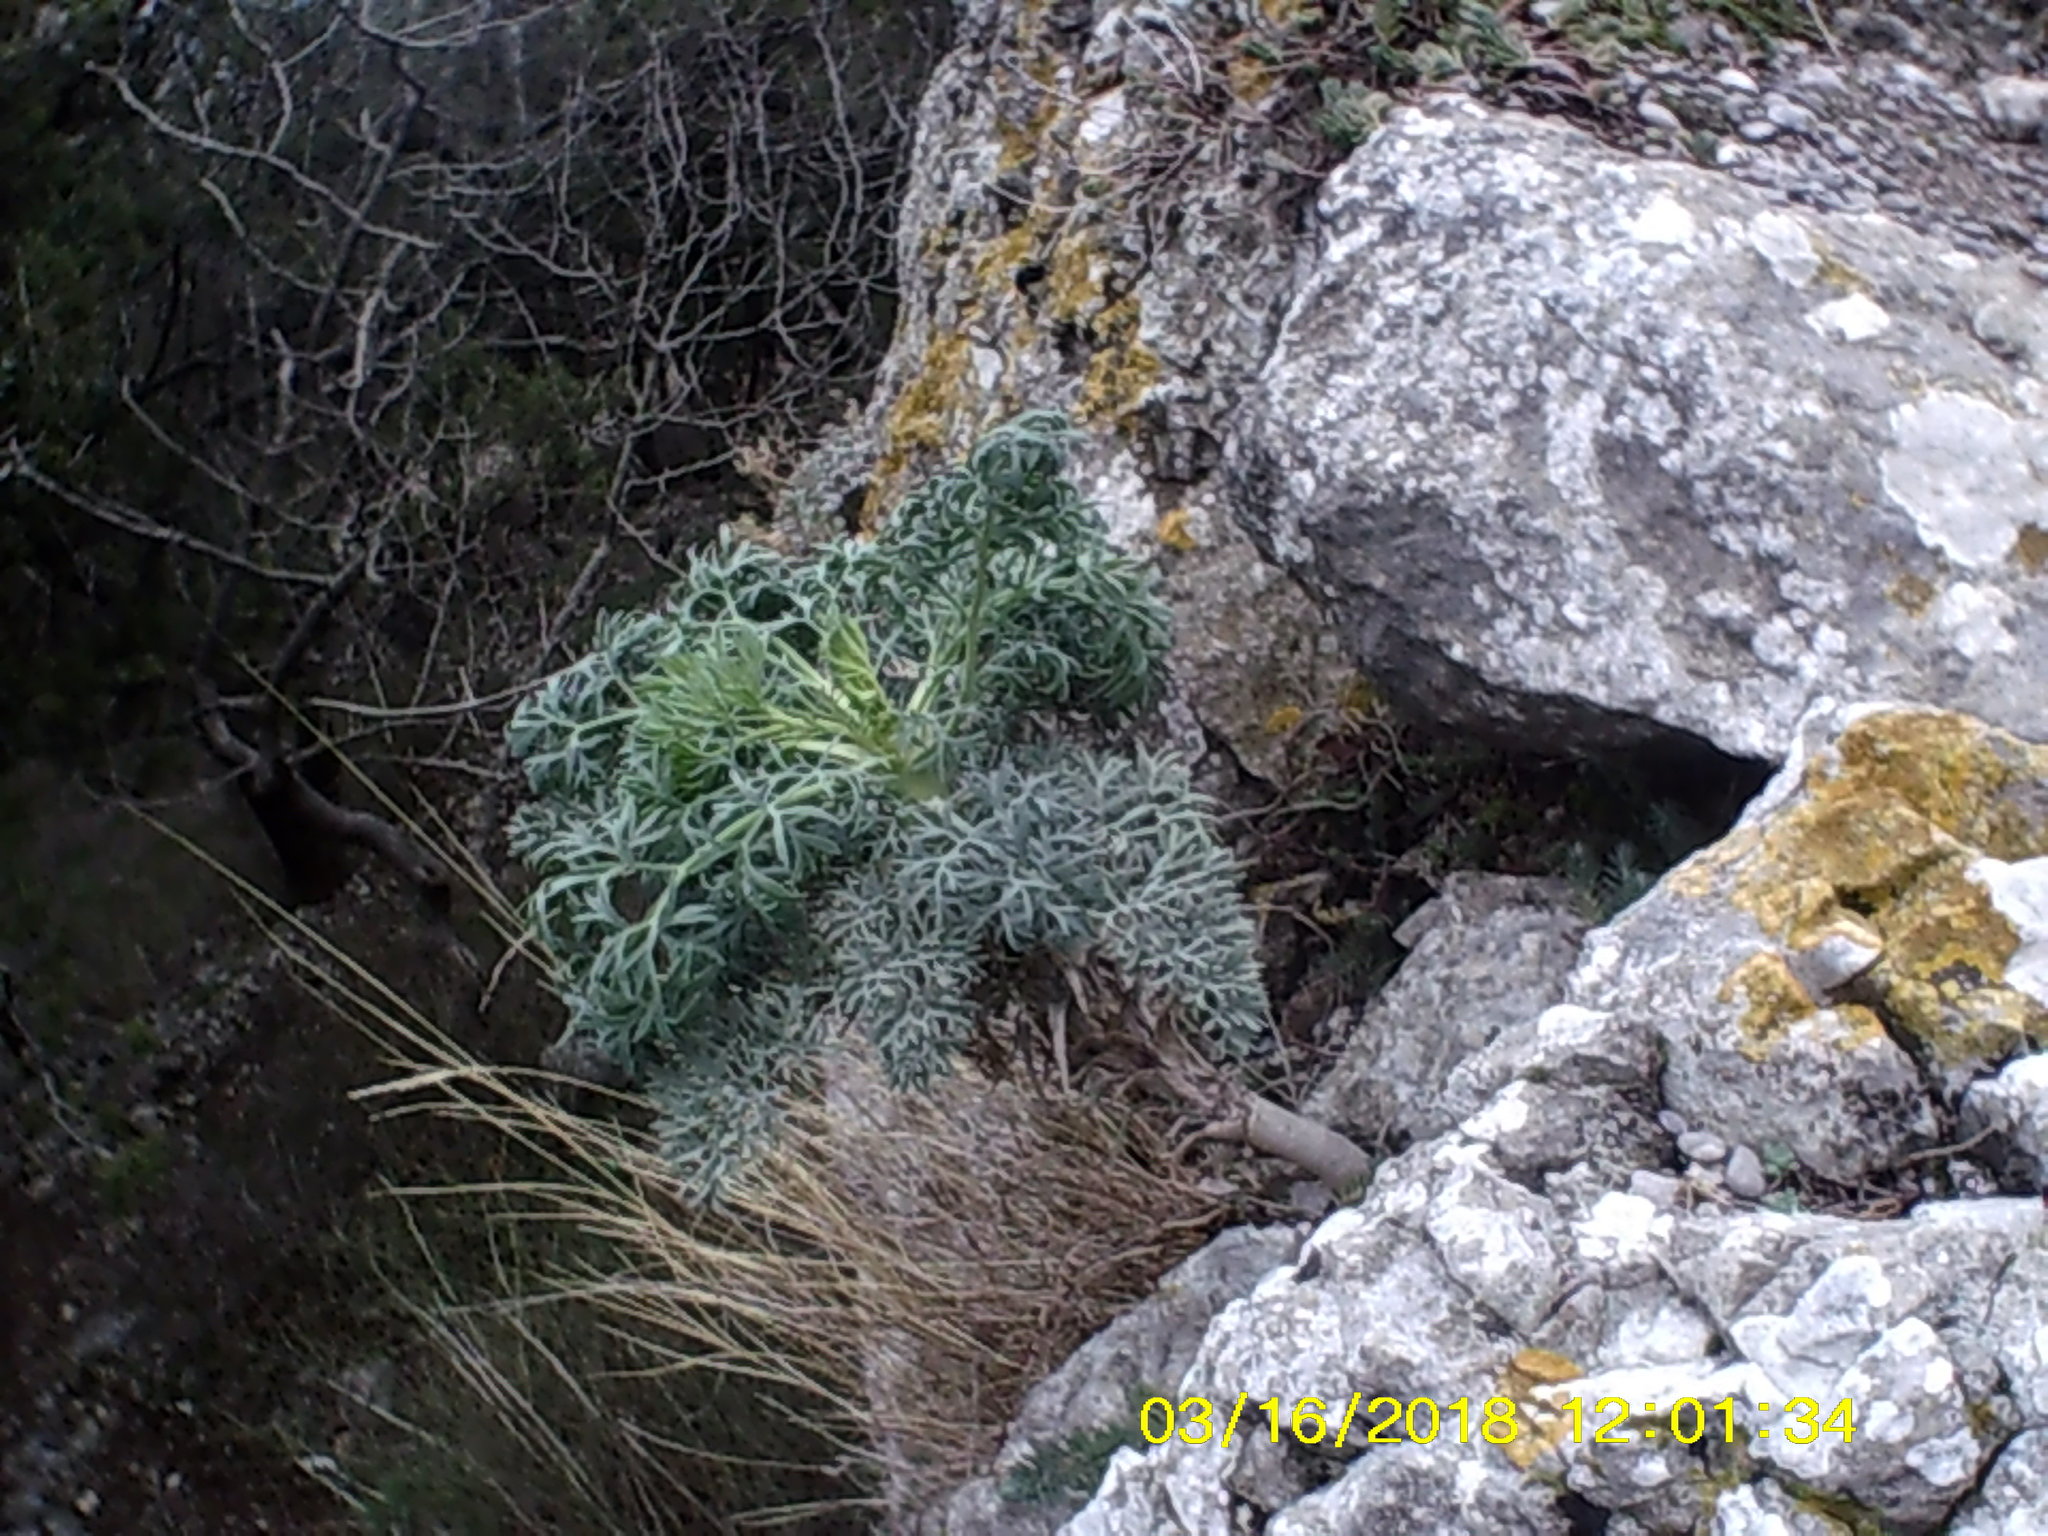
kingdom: Plantae
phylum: Tracheophyta
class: Magnoliopsida
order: Apiales
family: Apiaceae
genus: Seseli
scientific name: Seseli gummiferum
